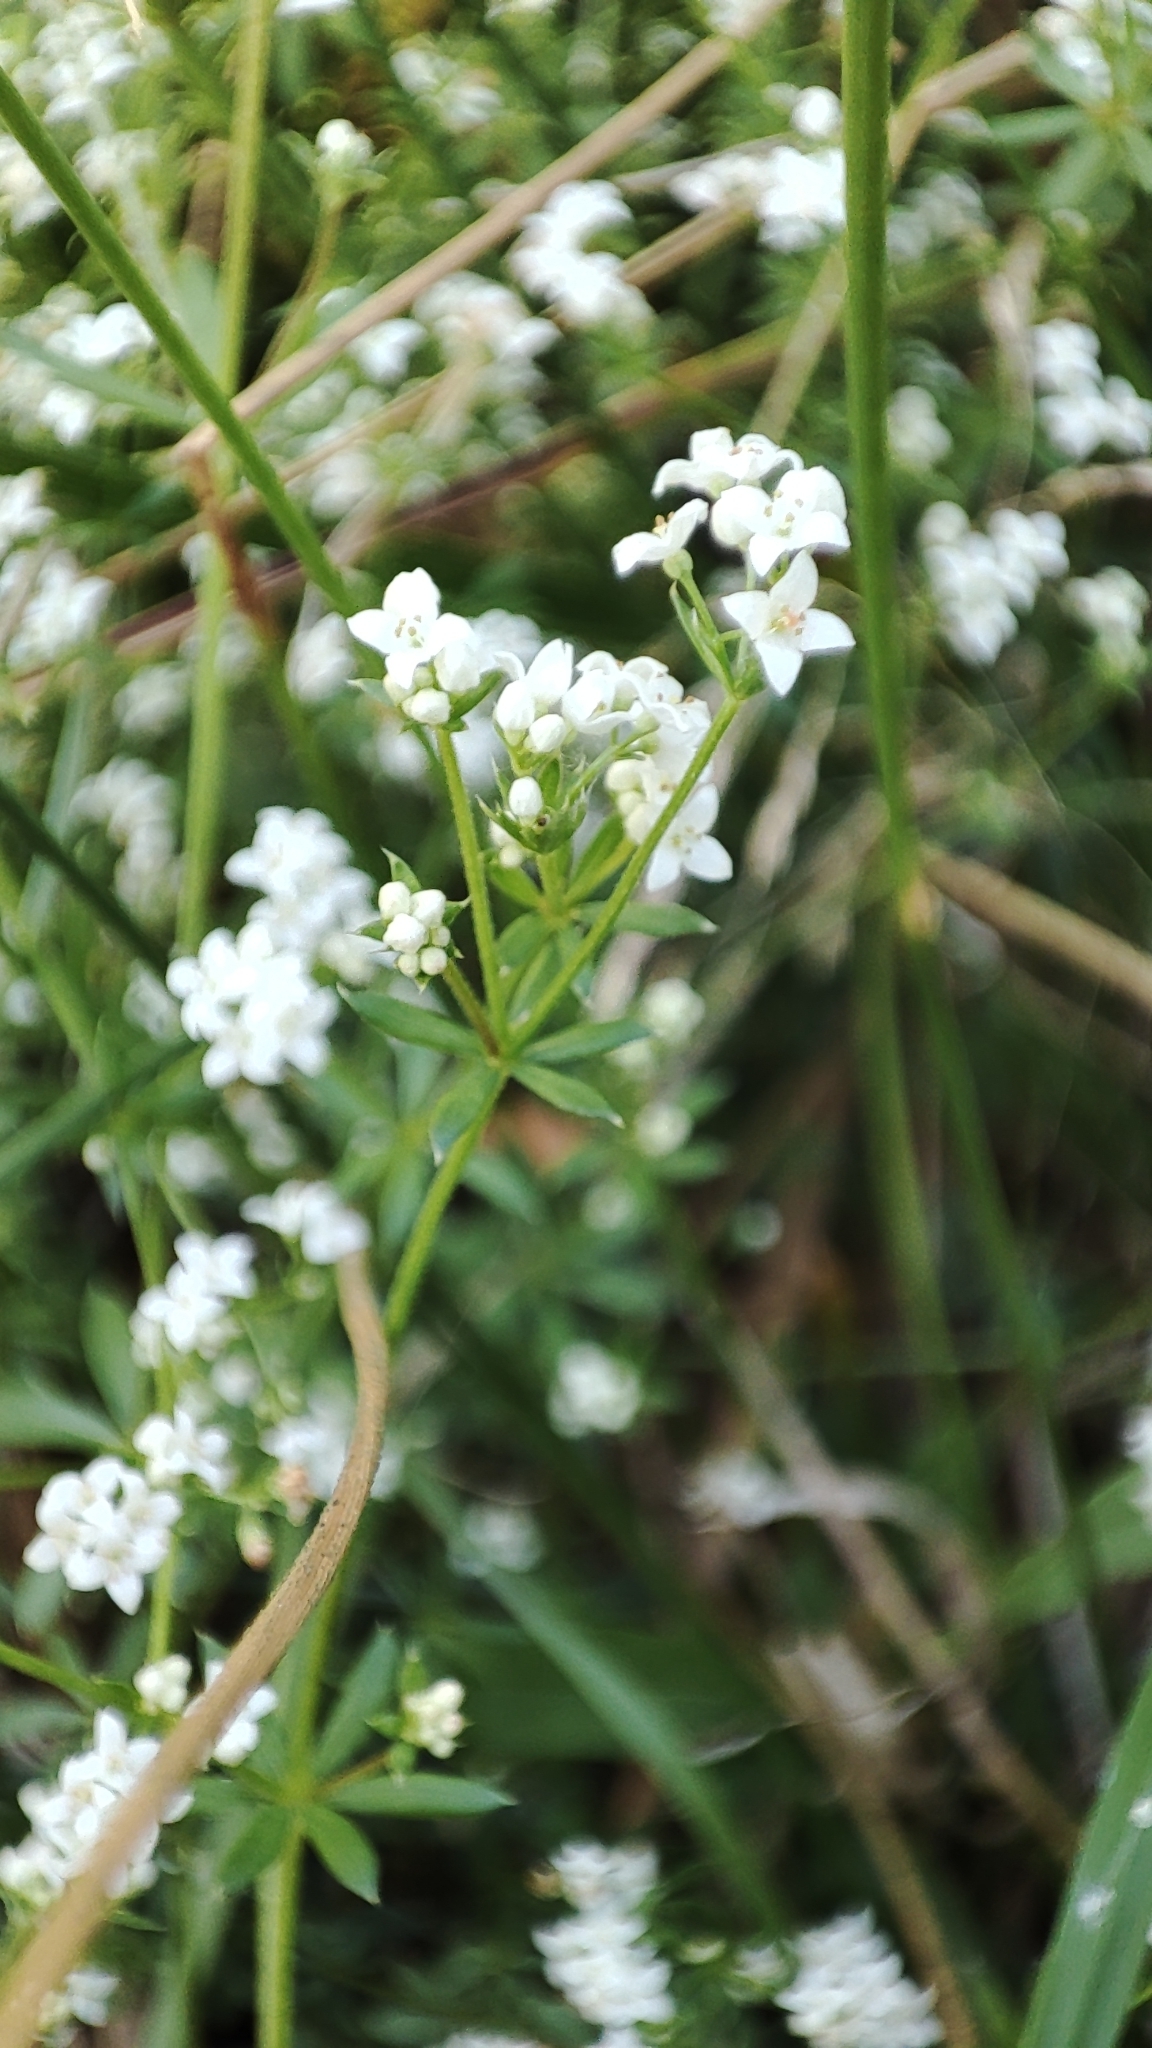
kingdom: Plantae
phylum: Tracheophyta
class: Magnoliopsida
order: Gentianales
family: Rubiaceae
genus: Galium
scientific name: Galium uliginosum
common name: Fen bedstraw
